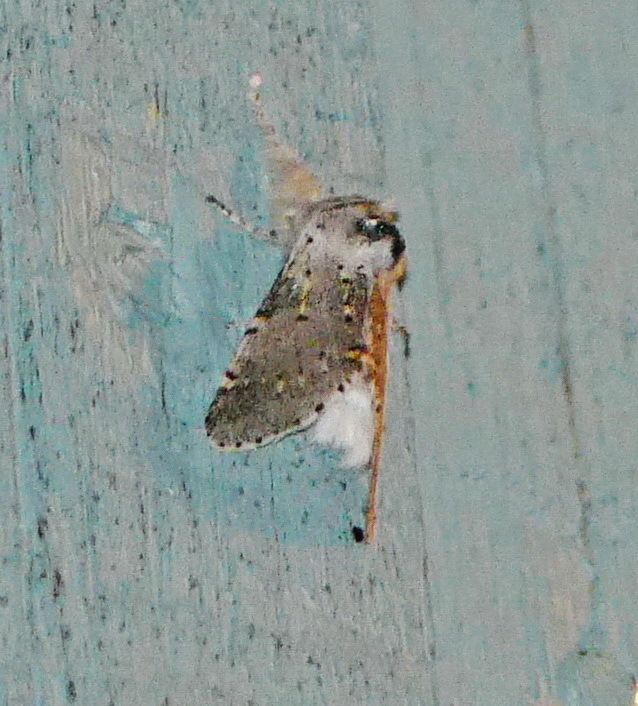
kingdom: Animalia
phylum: Arthropoda
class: Insecta
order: Lepidoptera
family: Notodontidae
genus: Furcula
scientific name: Furcula cinerea
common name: Gray furcula
